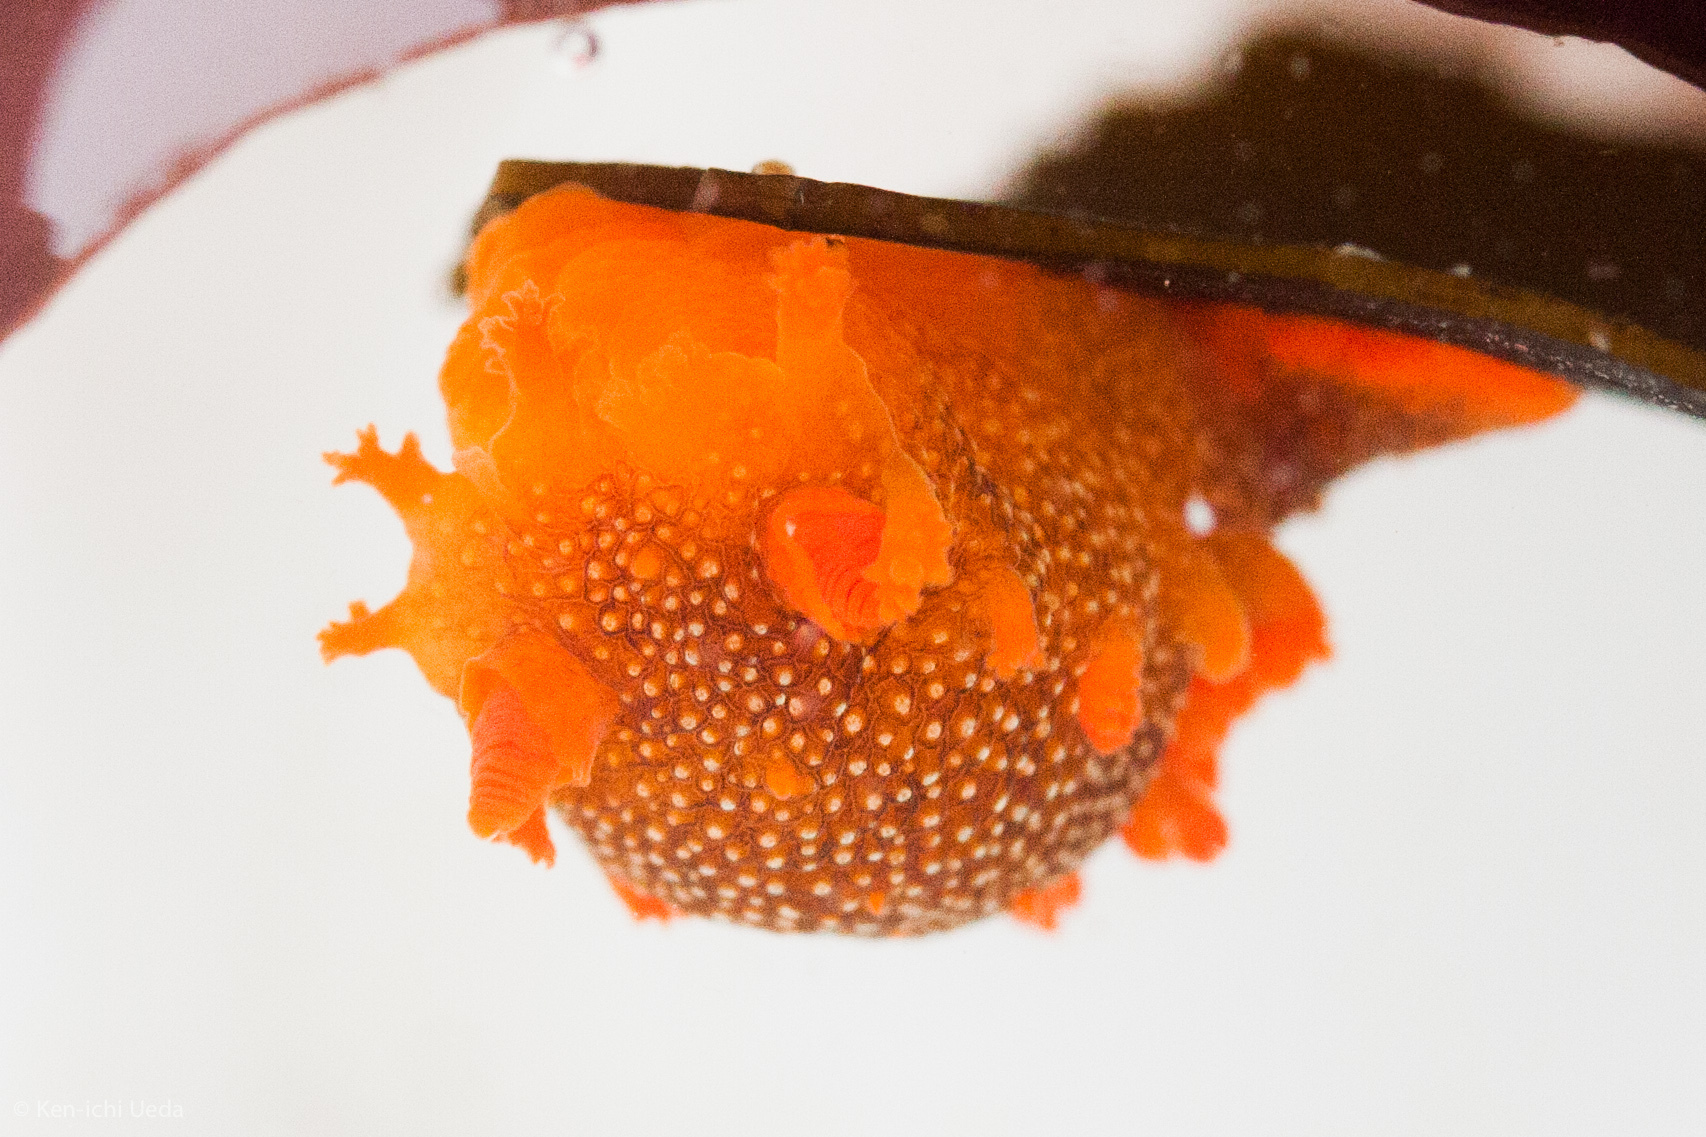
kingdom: Animalia
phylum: Mollusca
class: Gastropoda
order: Nudibranchia
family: Polyceridae
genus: Triopha
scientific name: Triopha maculata
